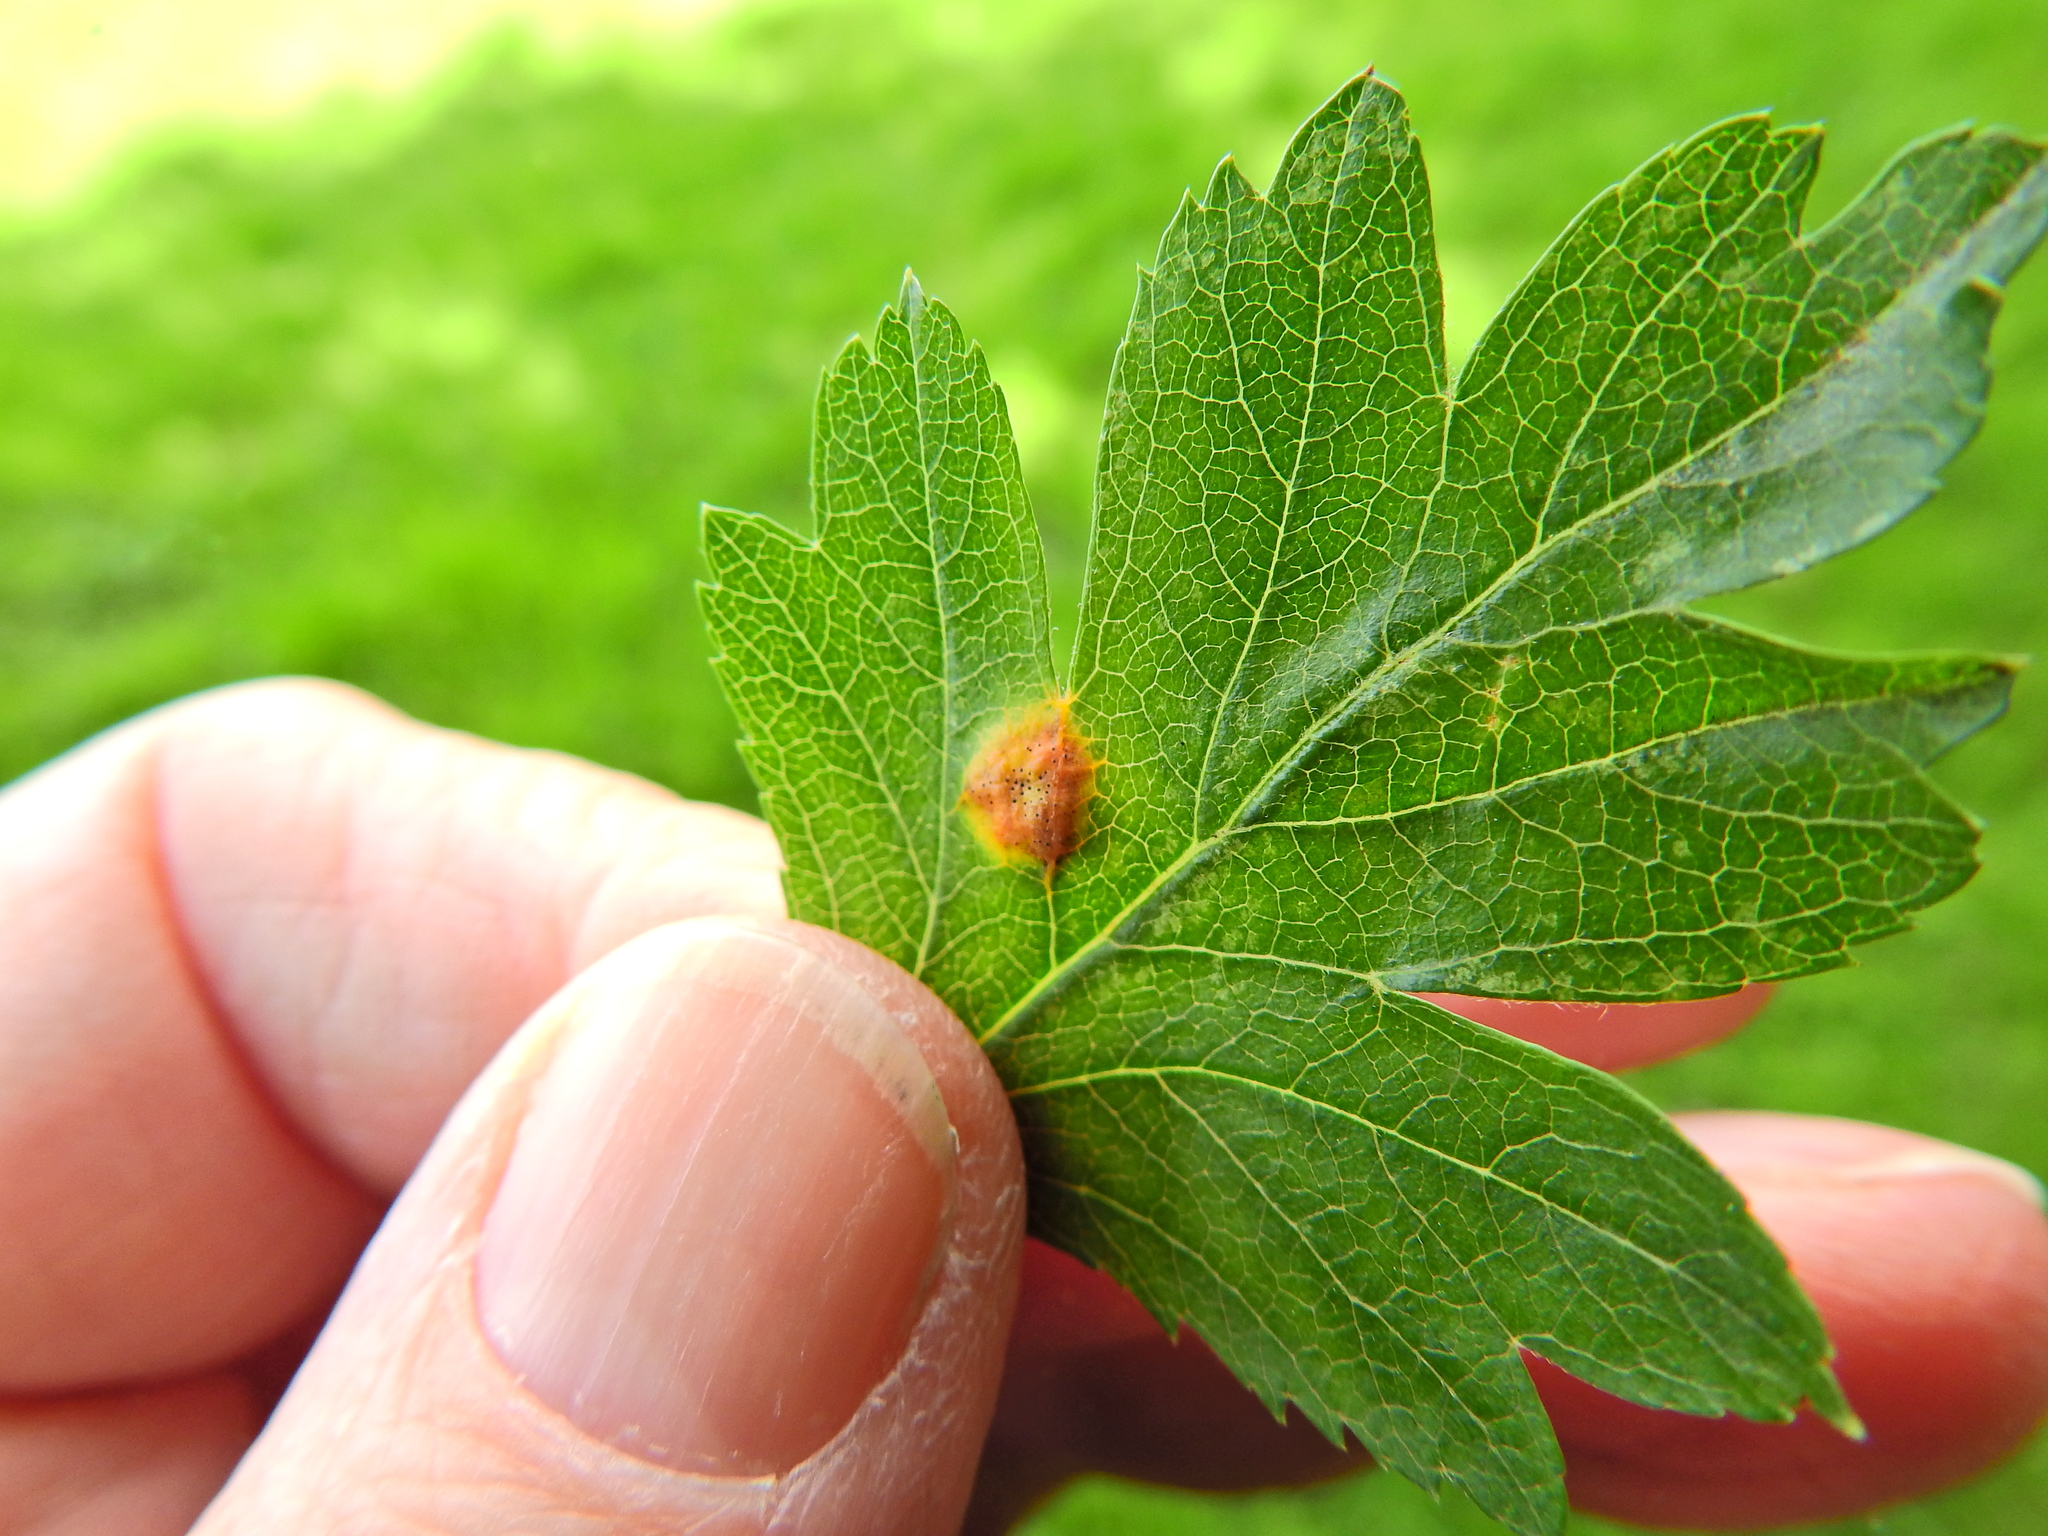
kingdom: Fungi
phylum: Basidiomycota
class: Pucciniomycetes
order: Pucciniales
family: Gymnosporangiaceae
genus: Gymnosporangium
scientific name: Gymnosporangium clavariiforme
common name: Tongues of fire
